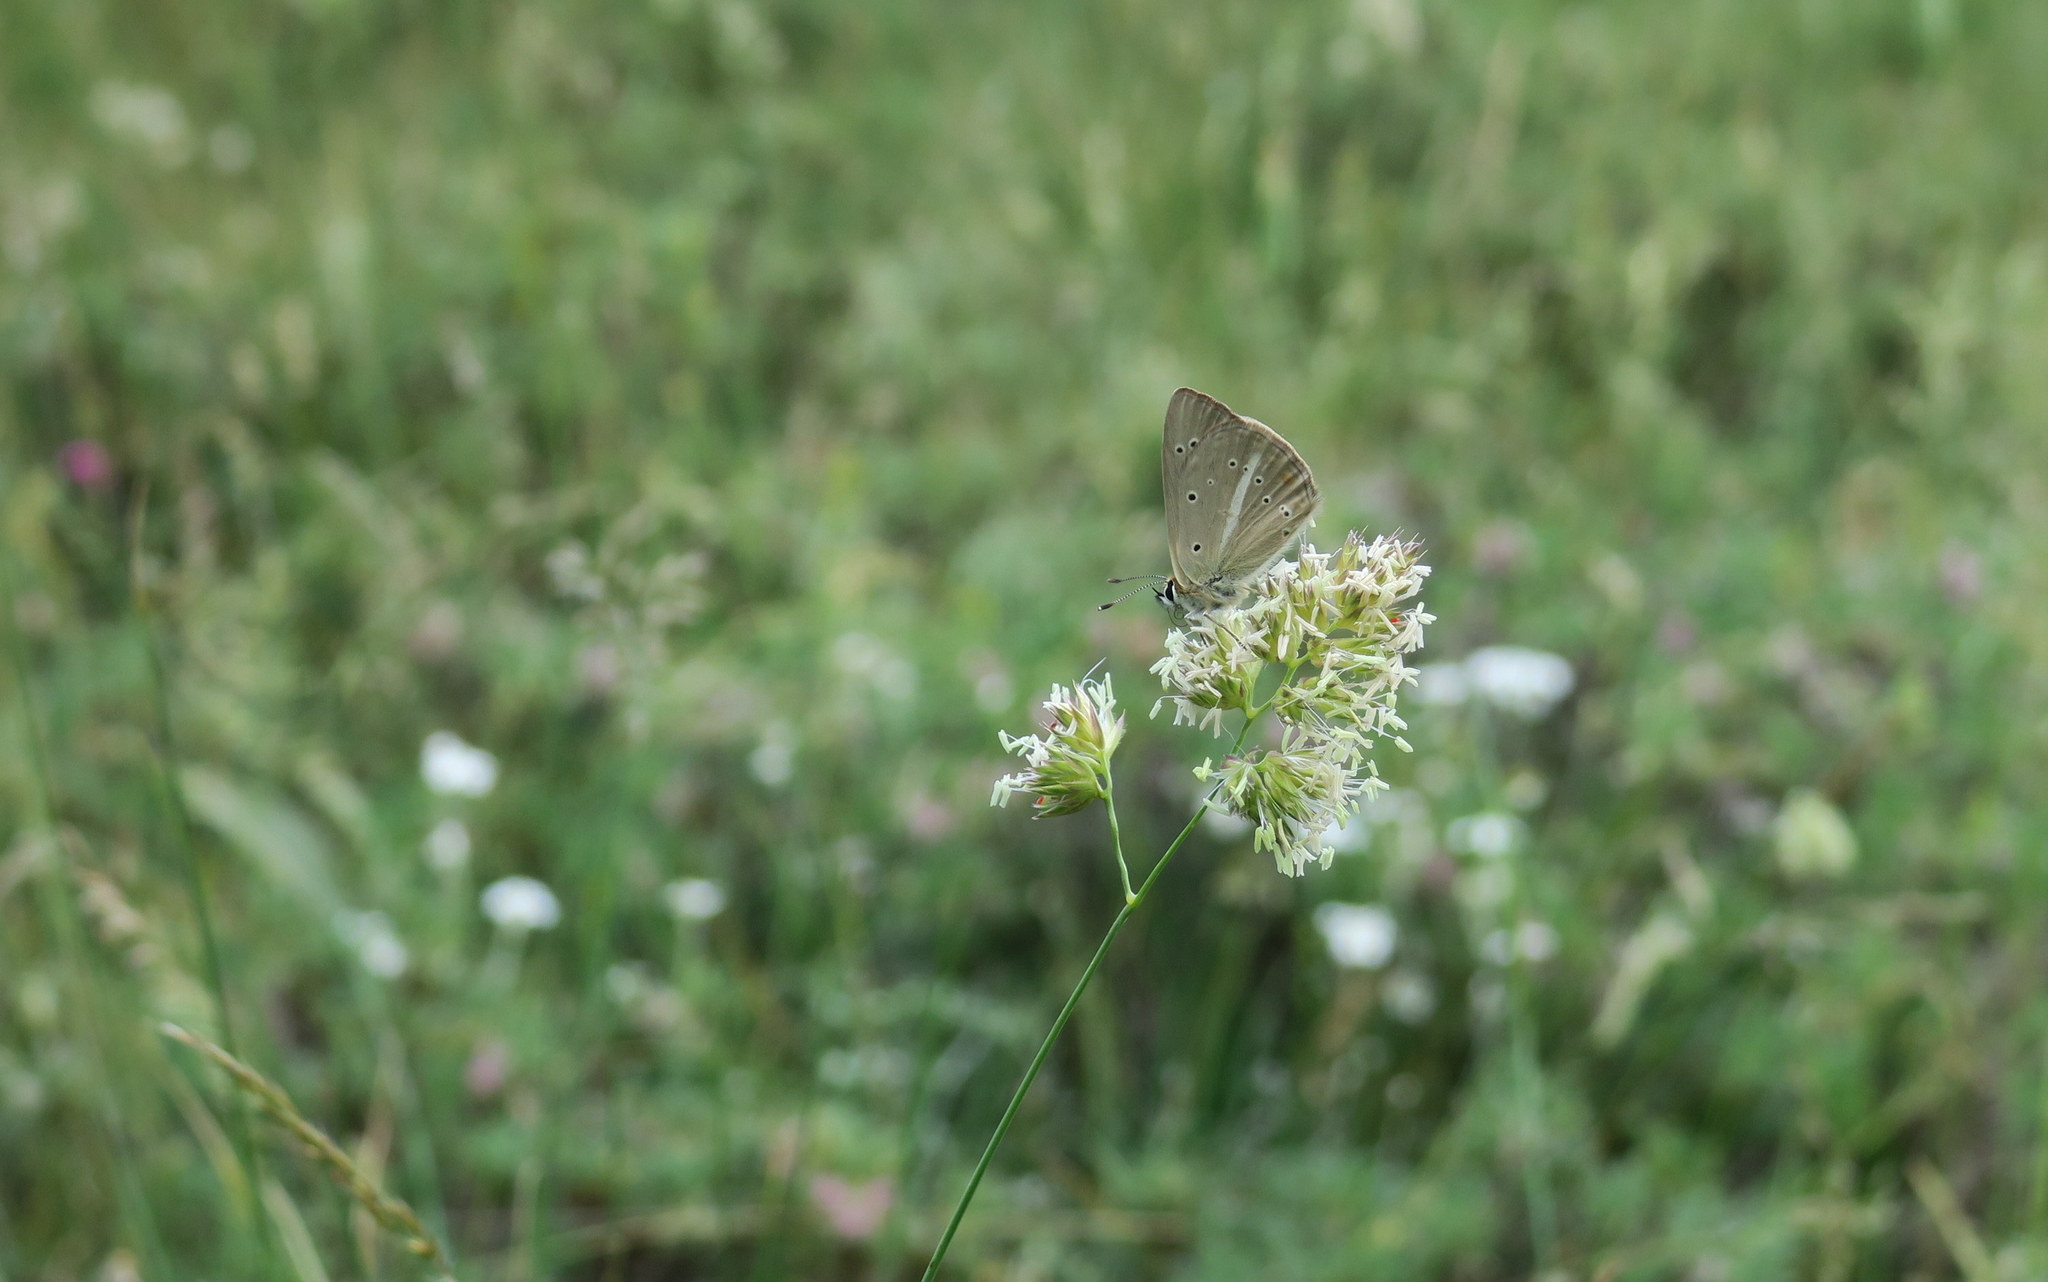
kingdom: Animalia
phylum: Arthropoda
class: Insecta
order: Lepidoptera
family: Lycaenidae
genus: Polyommatus
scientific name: Polyommatus ripartii
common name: Ripart's anomalous blue
